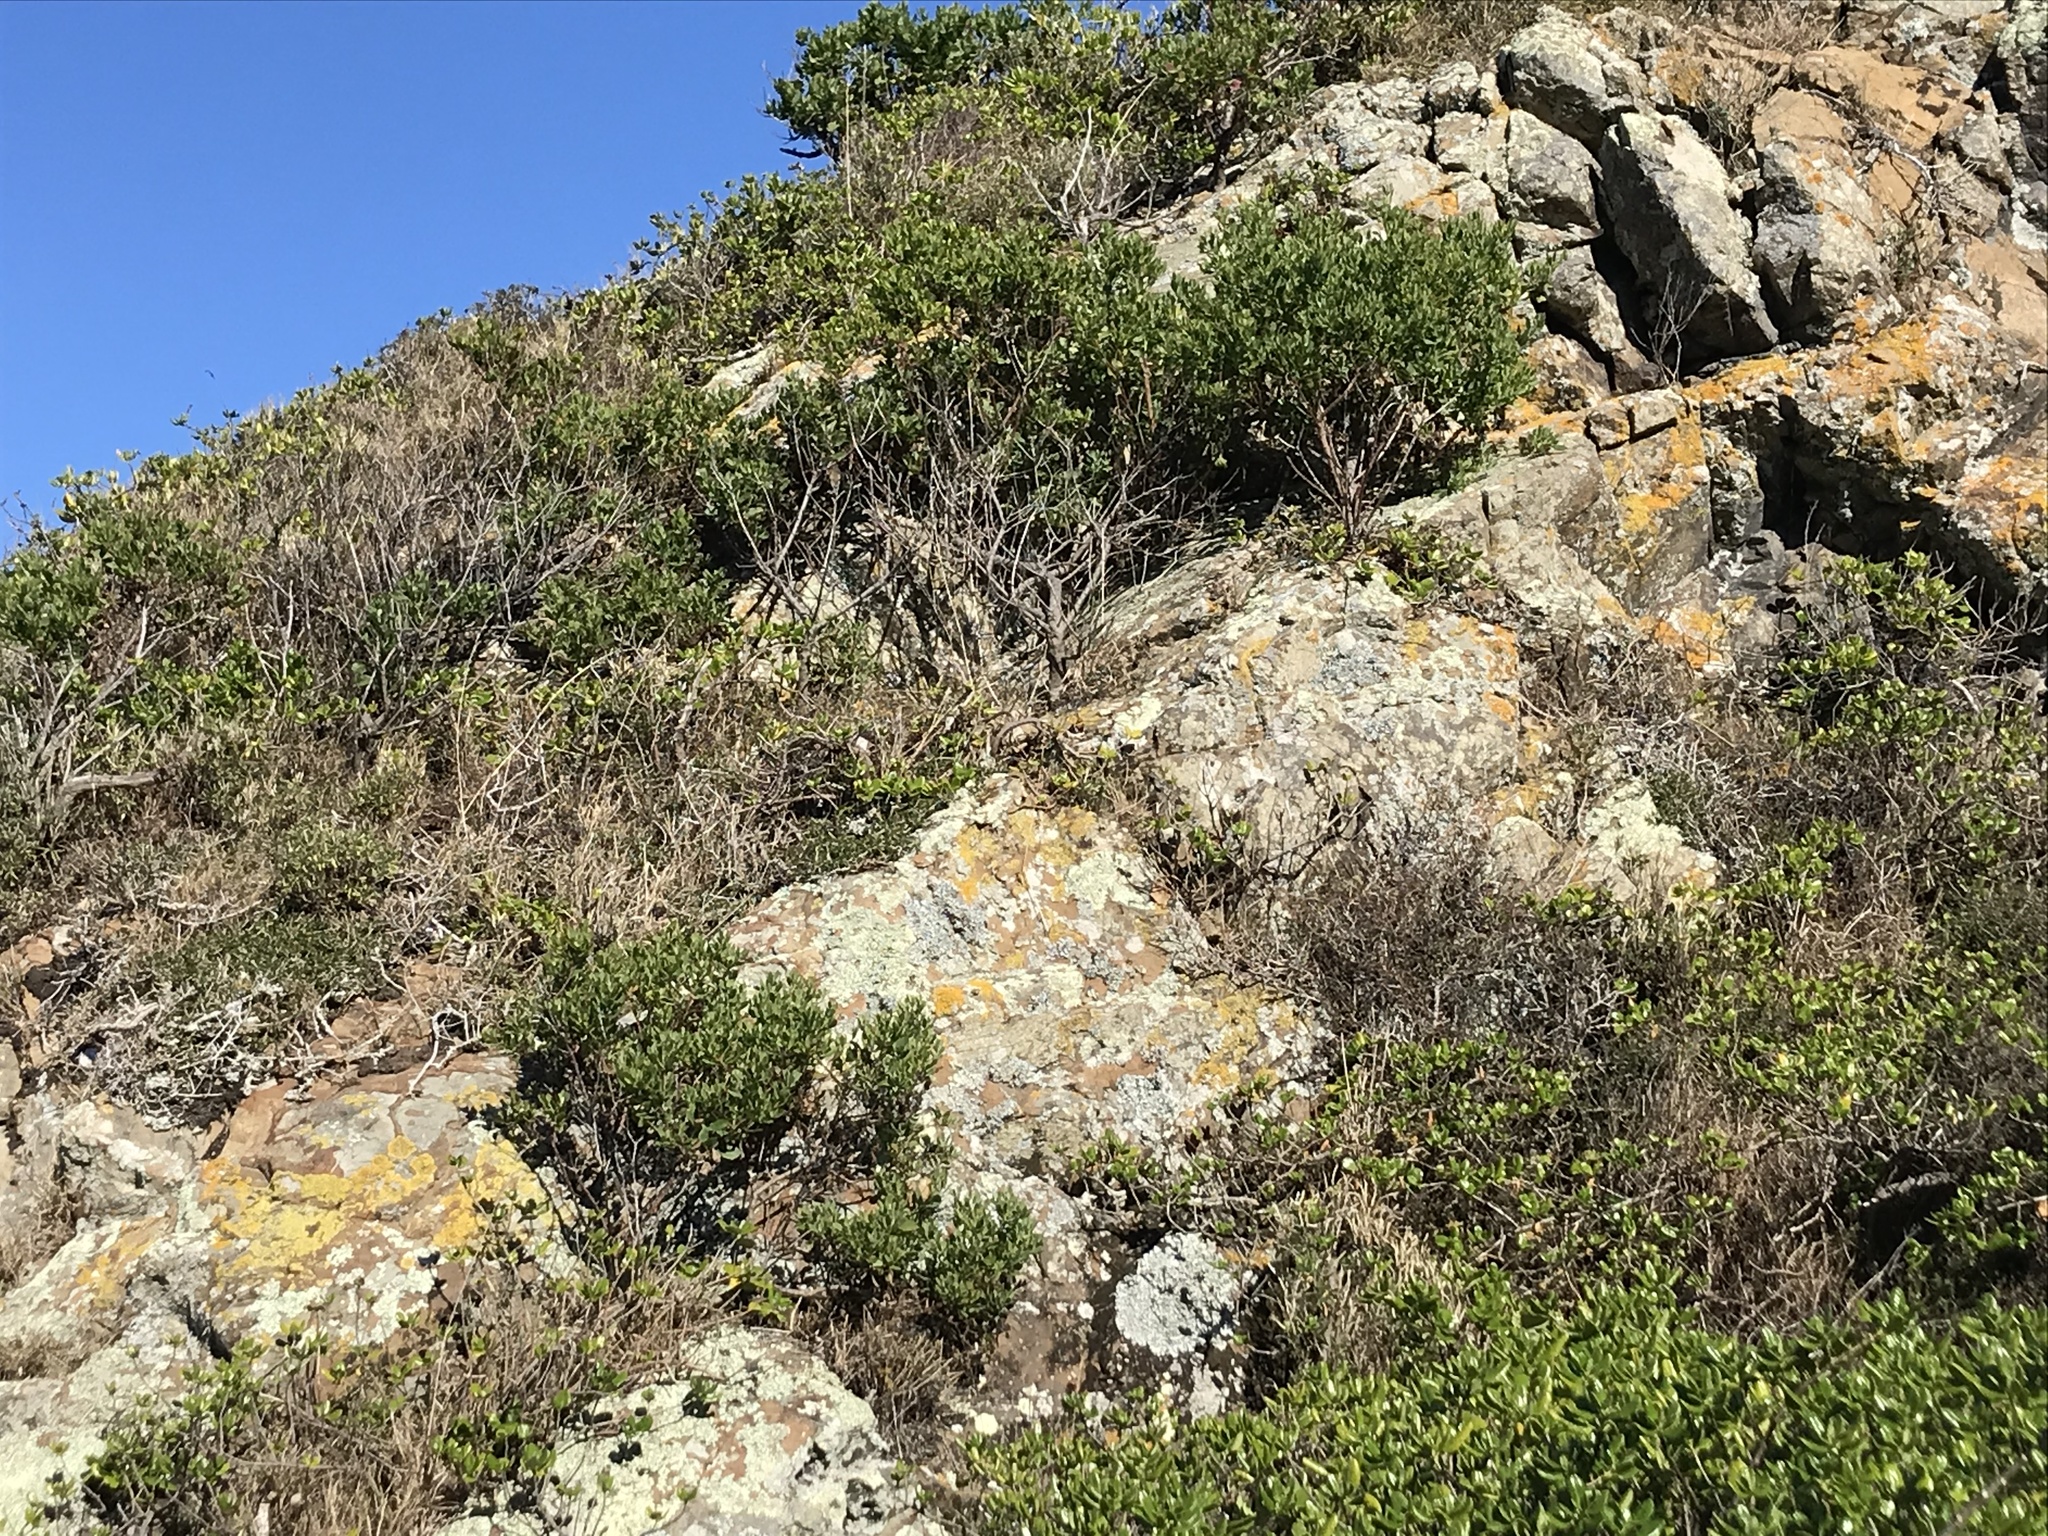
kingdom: Plantae
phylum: Tracheophyta
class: Magnoliopsida
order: Asterales
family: Asteraceae
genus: Osteospermum
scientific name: Osteospermum moniliferum
